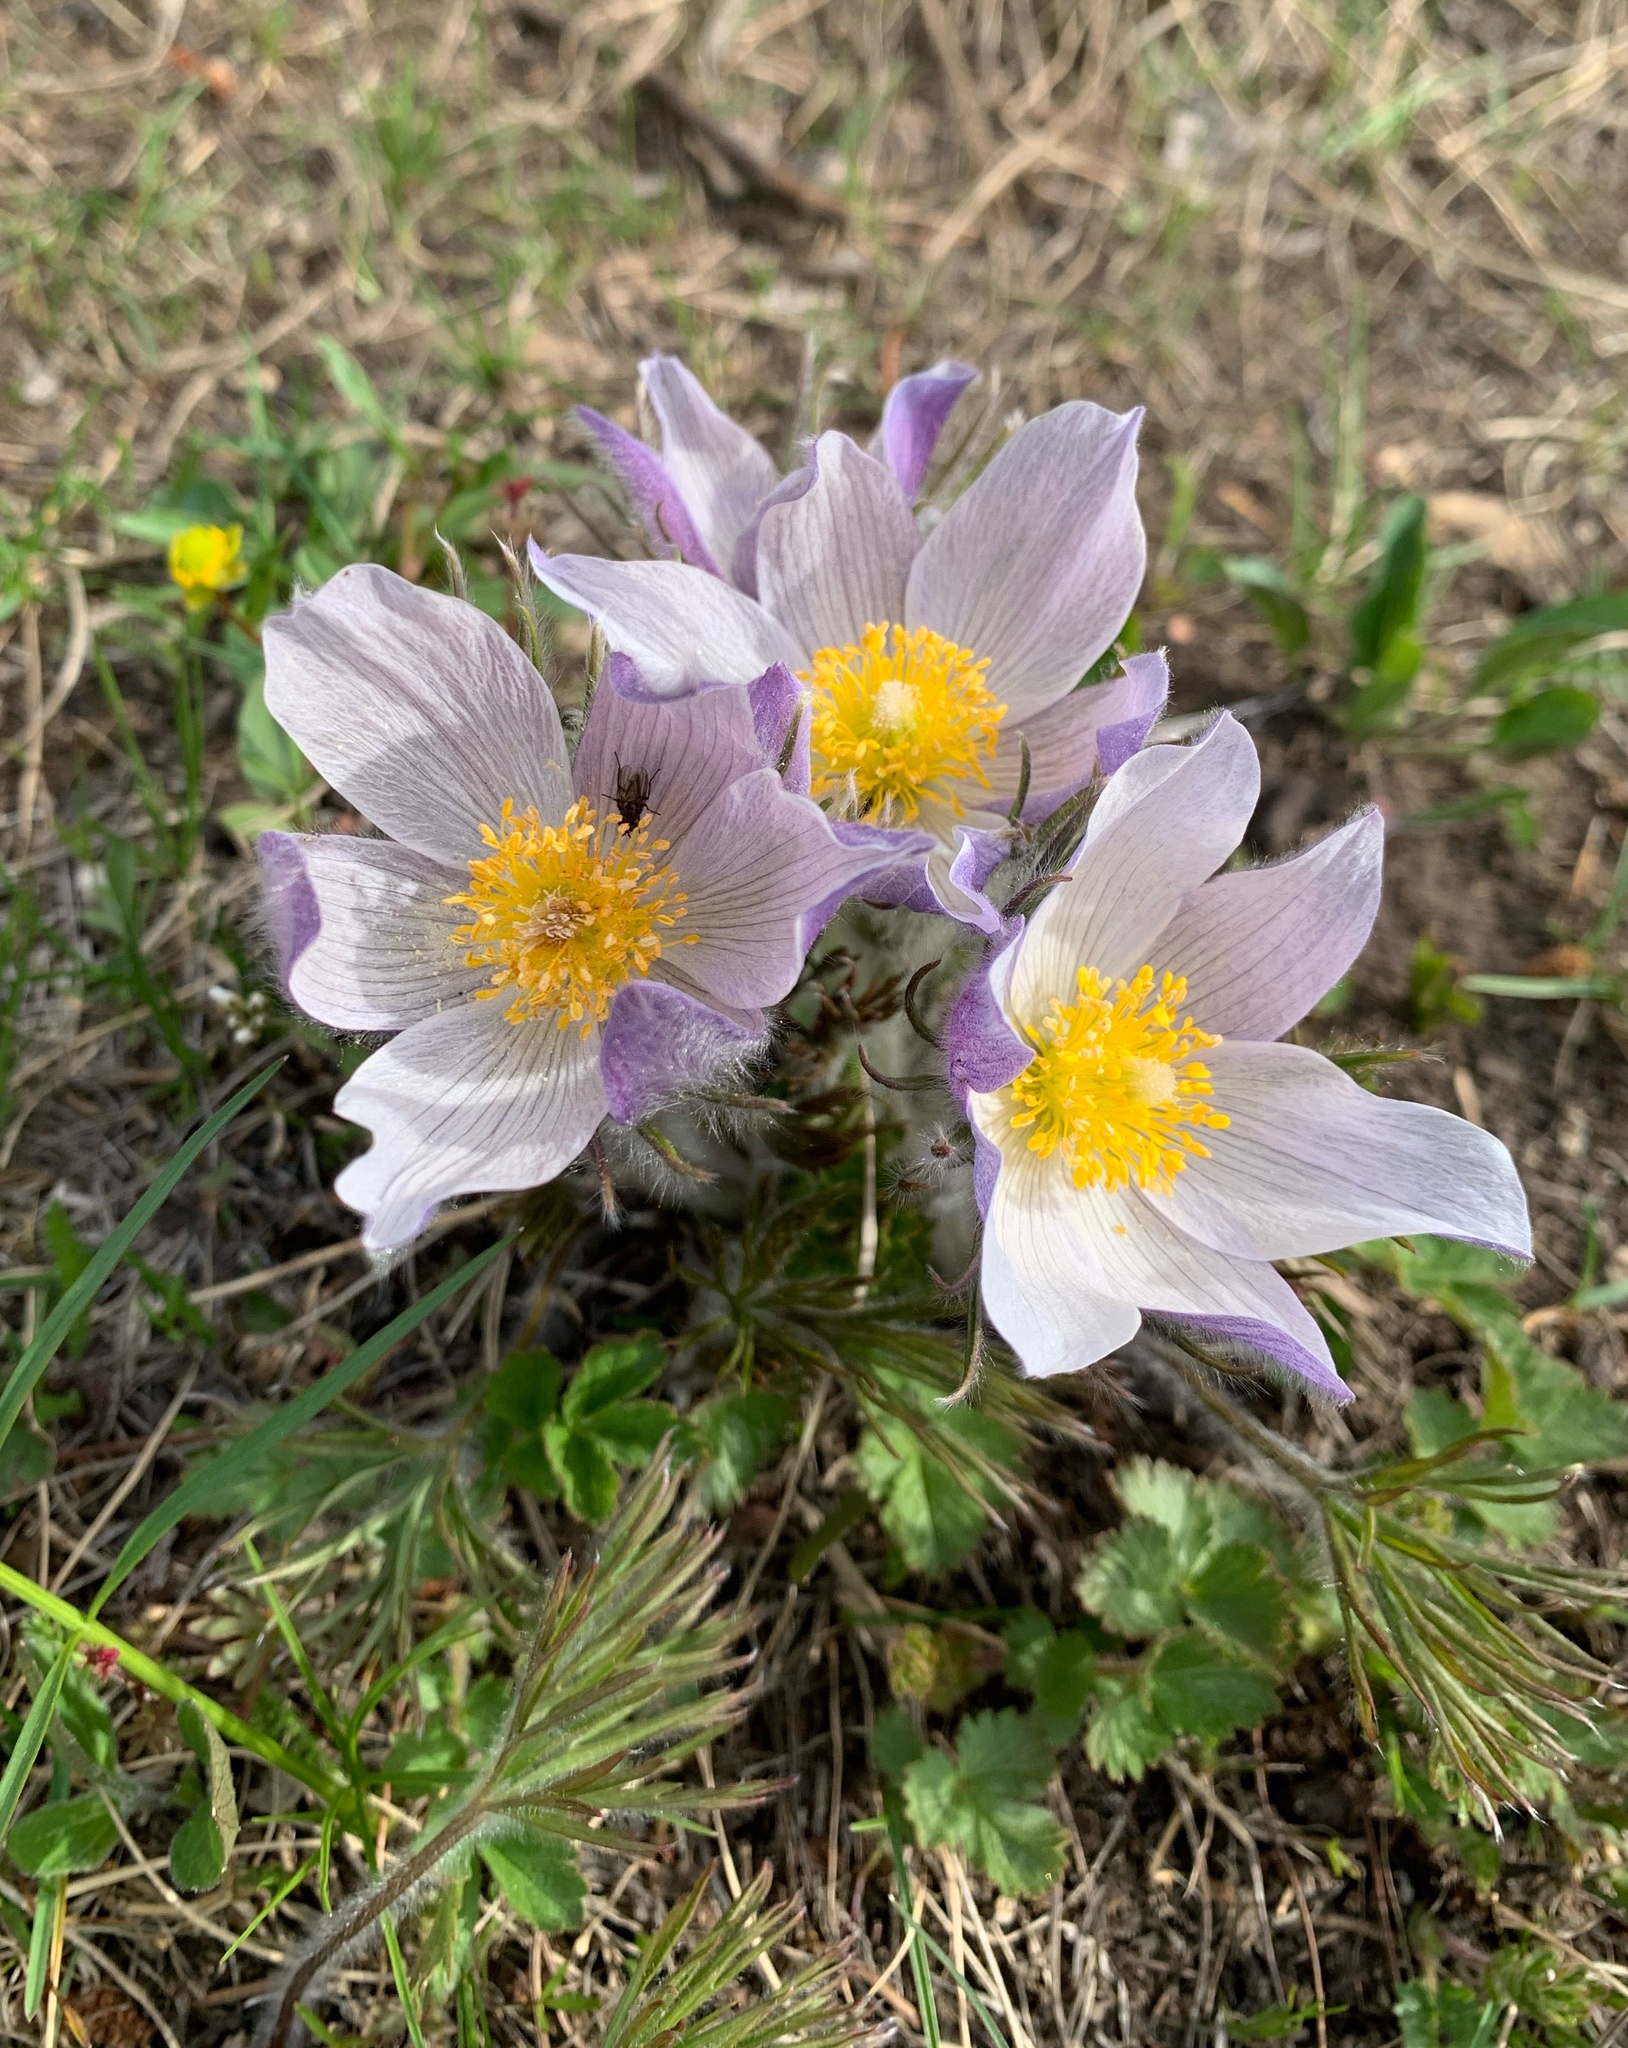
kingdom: Plantae
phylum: Tracheophyta
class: Magnoliopsida
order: Ranunculales
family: Ranunculaceae
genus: Pulsatilla
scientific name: Pulsatilla nuttalliana
